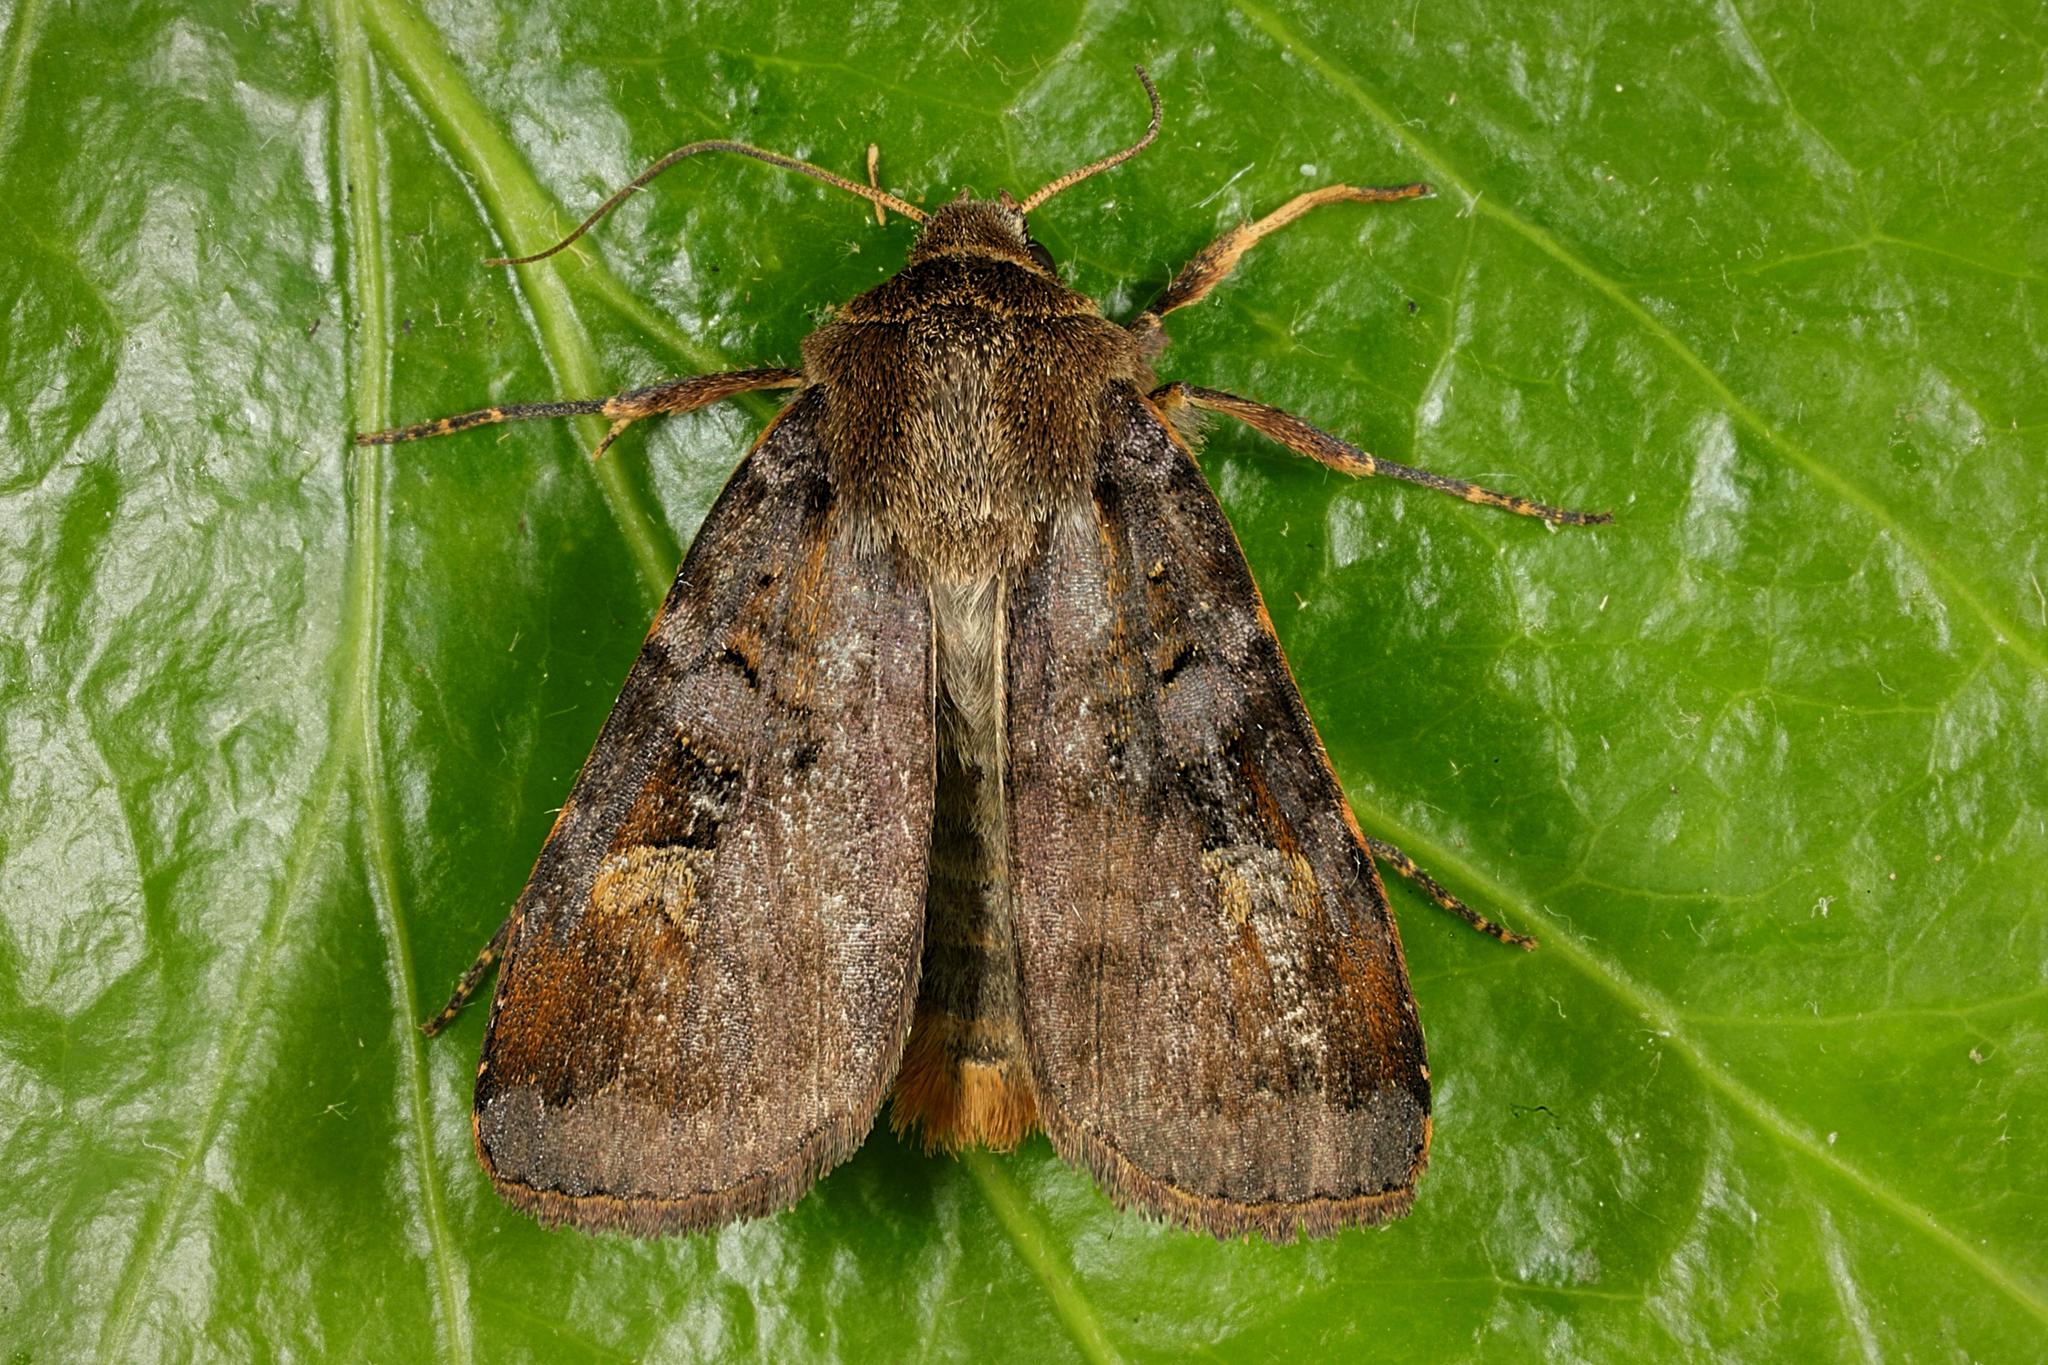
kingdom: Animalia
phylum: Arthropoda
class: Insecta
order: Lepidoptera
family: Noctuidae
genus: Diarsia
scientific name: Diarsia brunnea
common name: Purple clay
